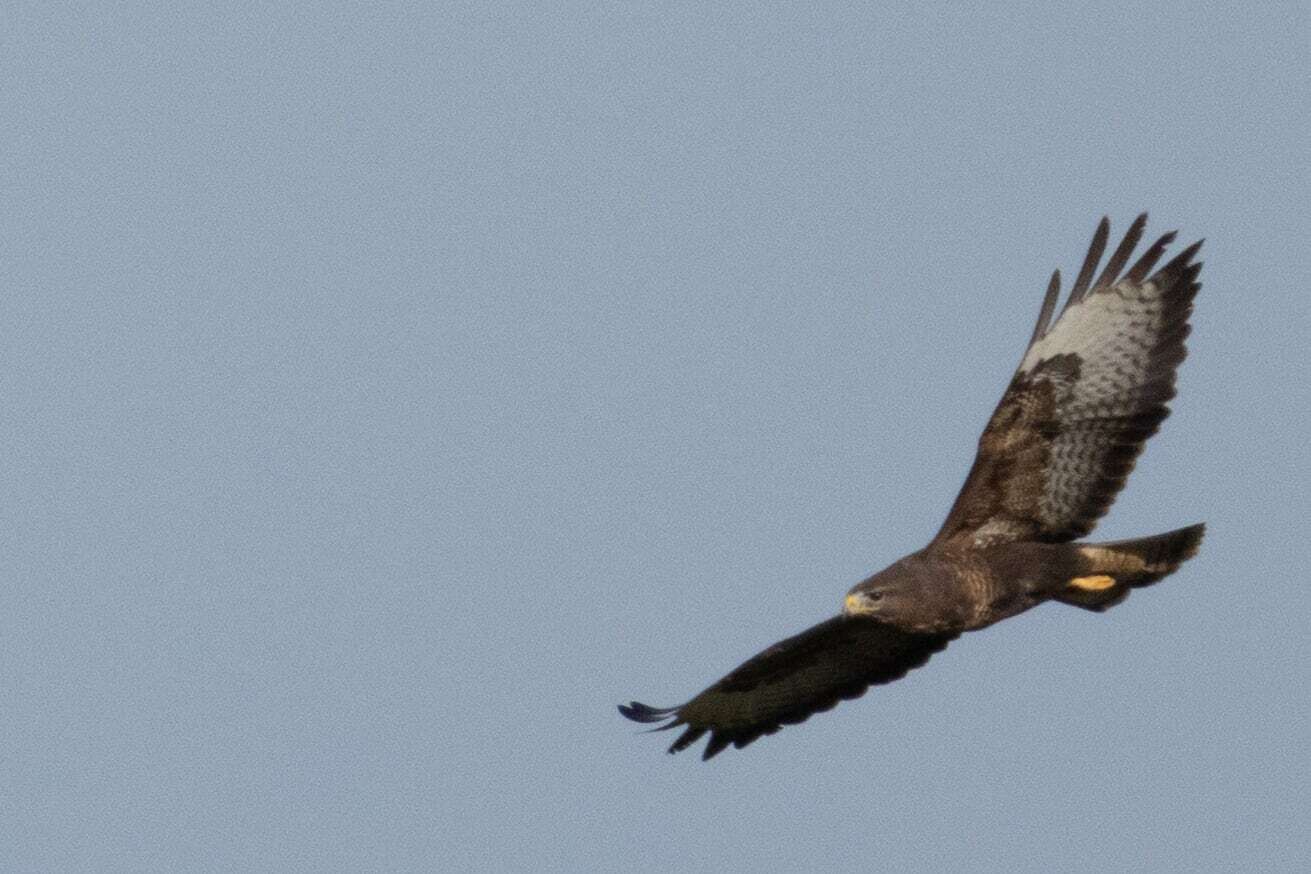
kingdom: Animalia
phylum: Chordata
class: Aves
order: Accipitriformes
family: Accipitridae
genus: Buteo
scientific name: Buteo buteo
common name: Common buzzard
